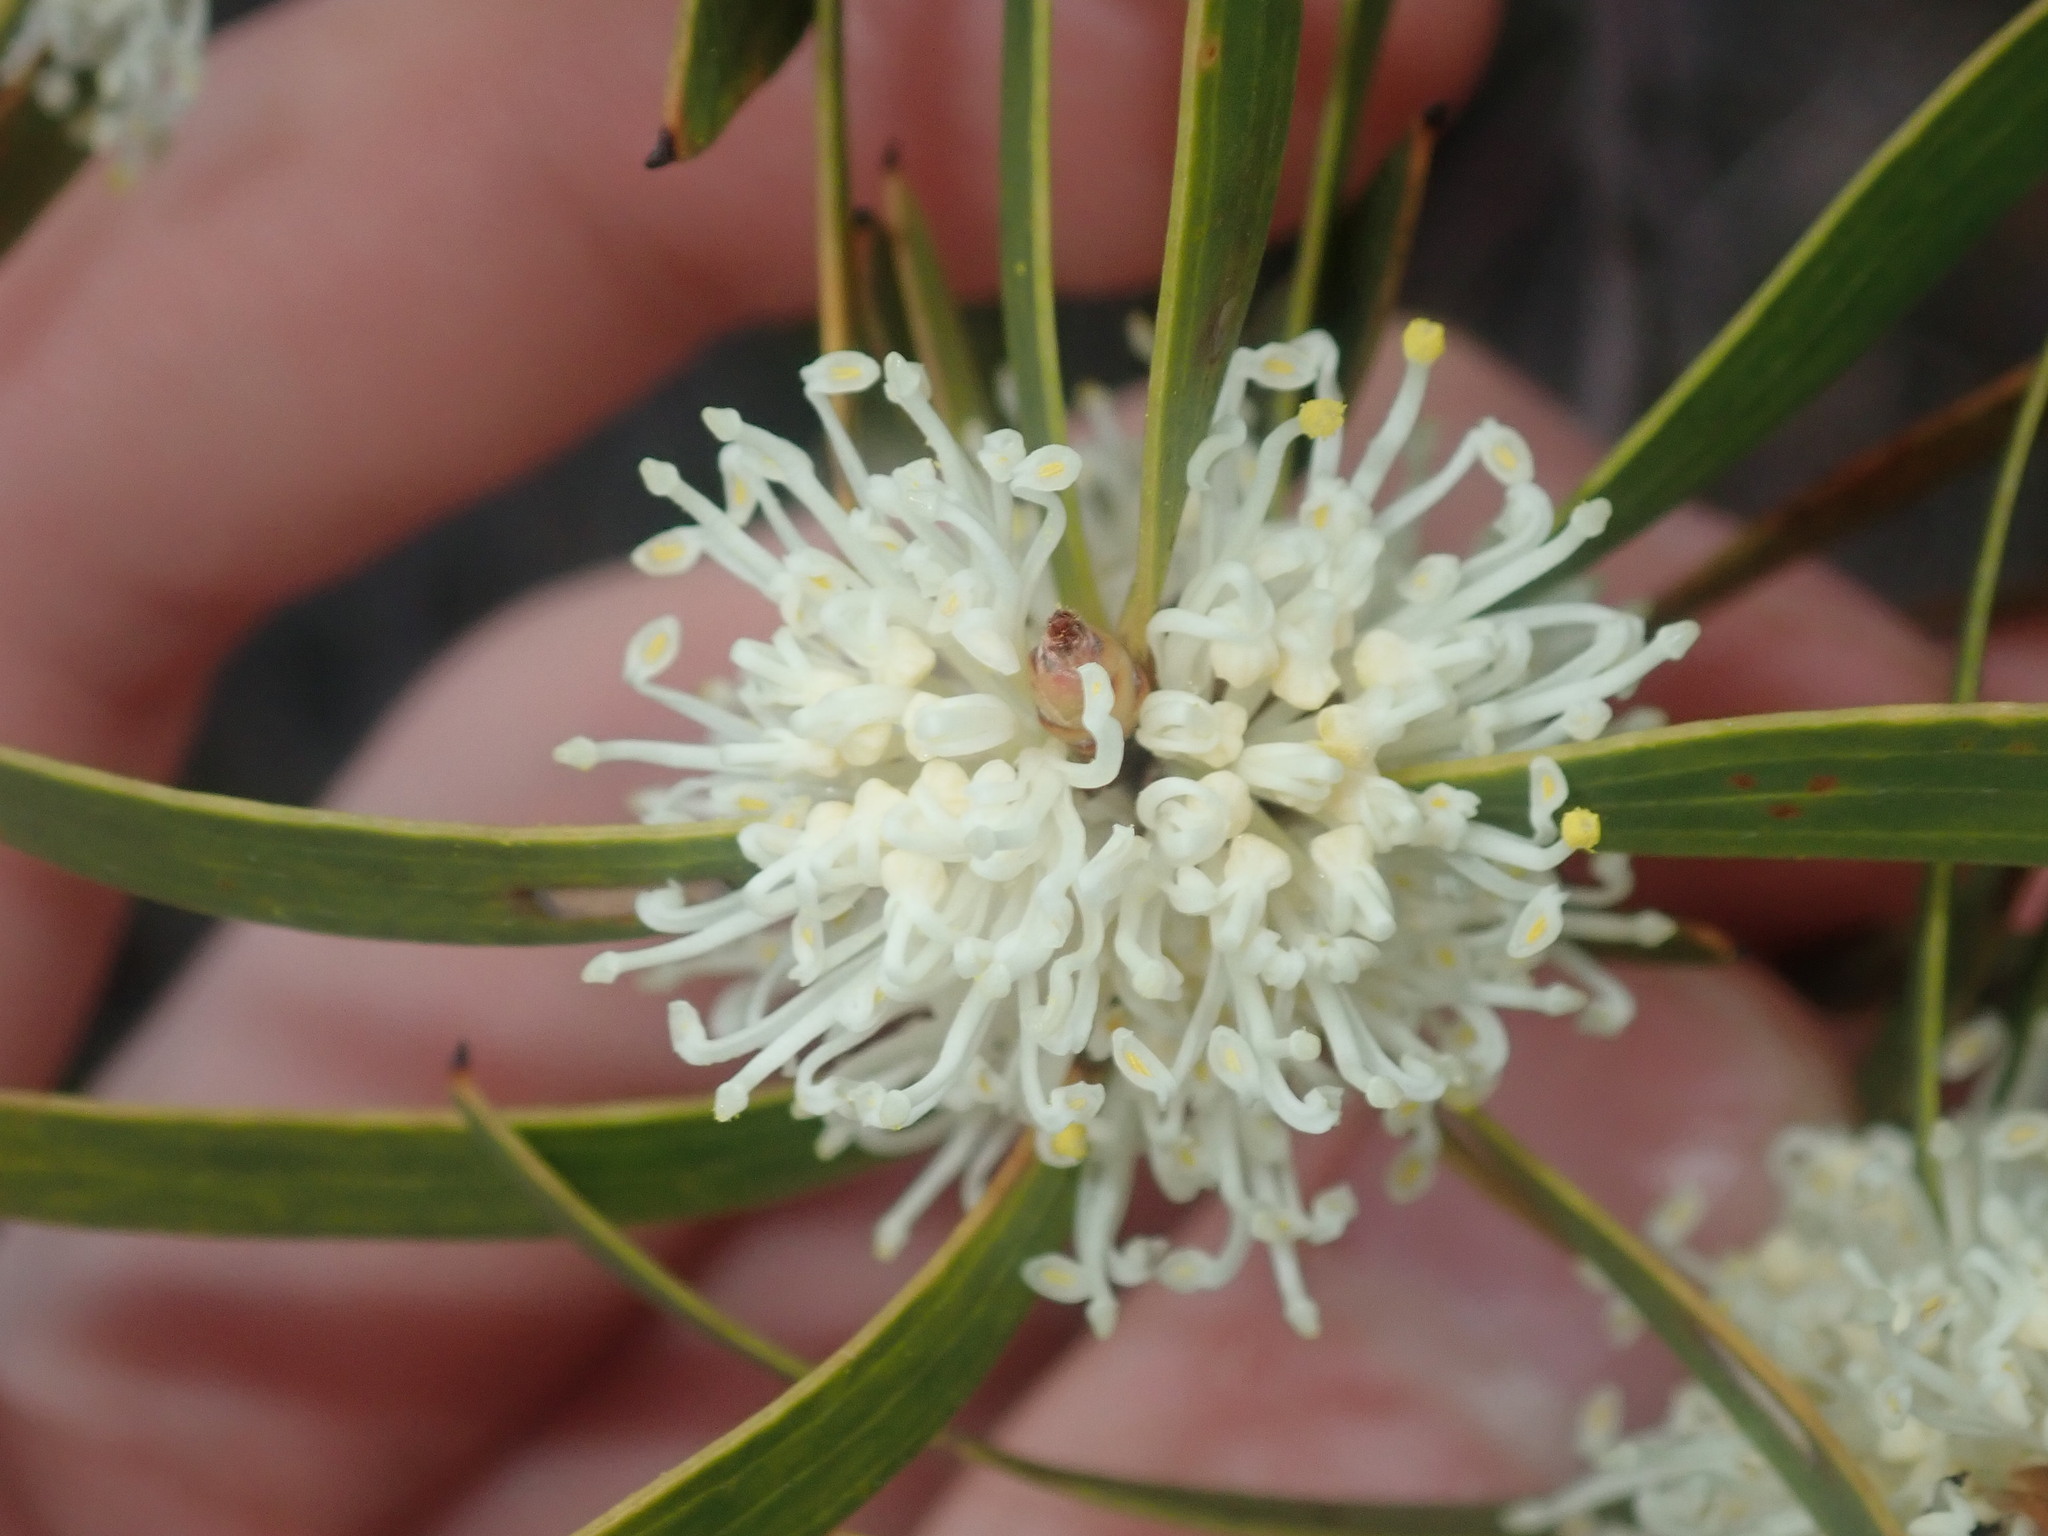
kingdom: Plantae
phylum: Tracheophyta
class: Magnoliopsida
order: Proteales
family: Proteaceae
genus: Hakea
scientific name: Hakea ambigua
